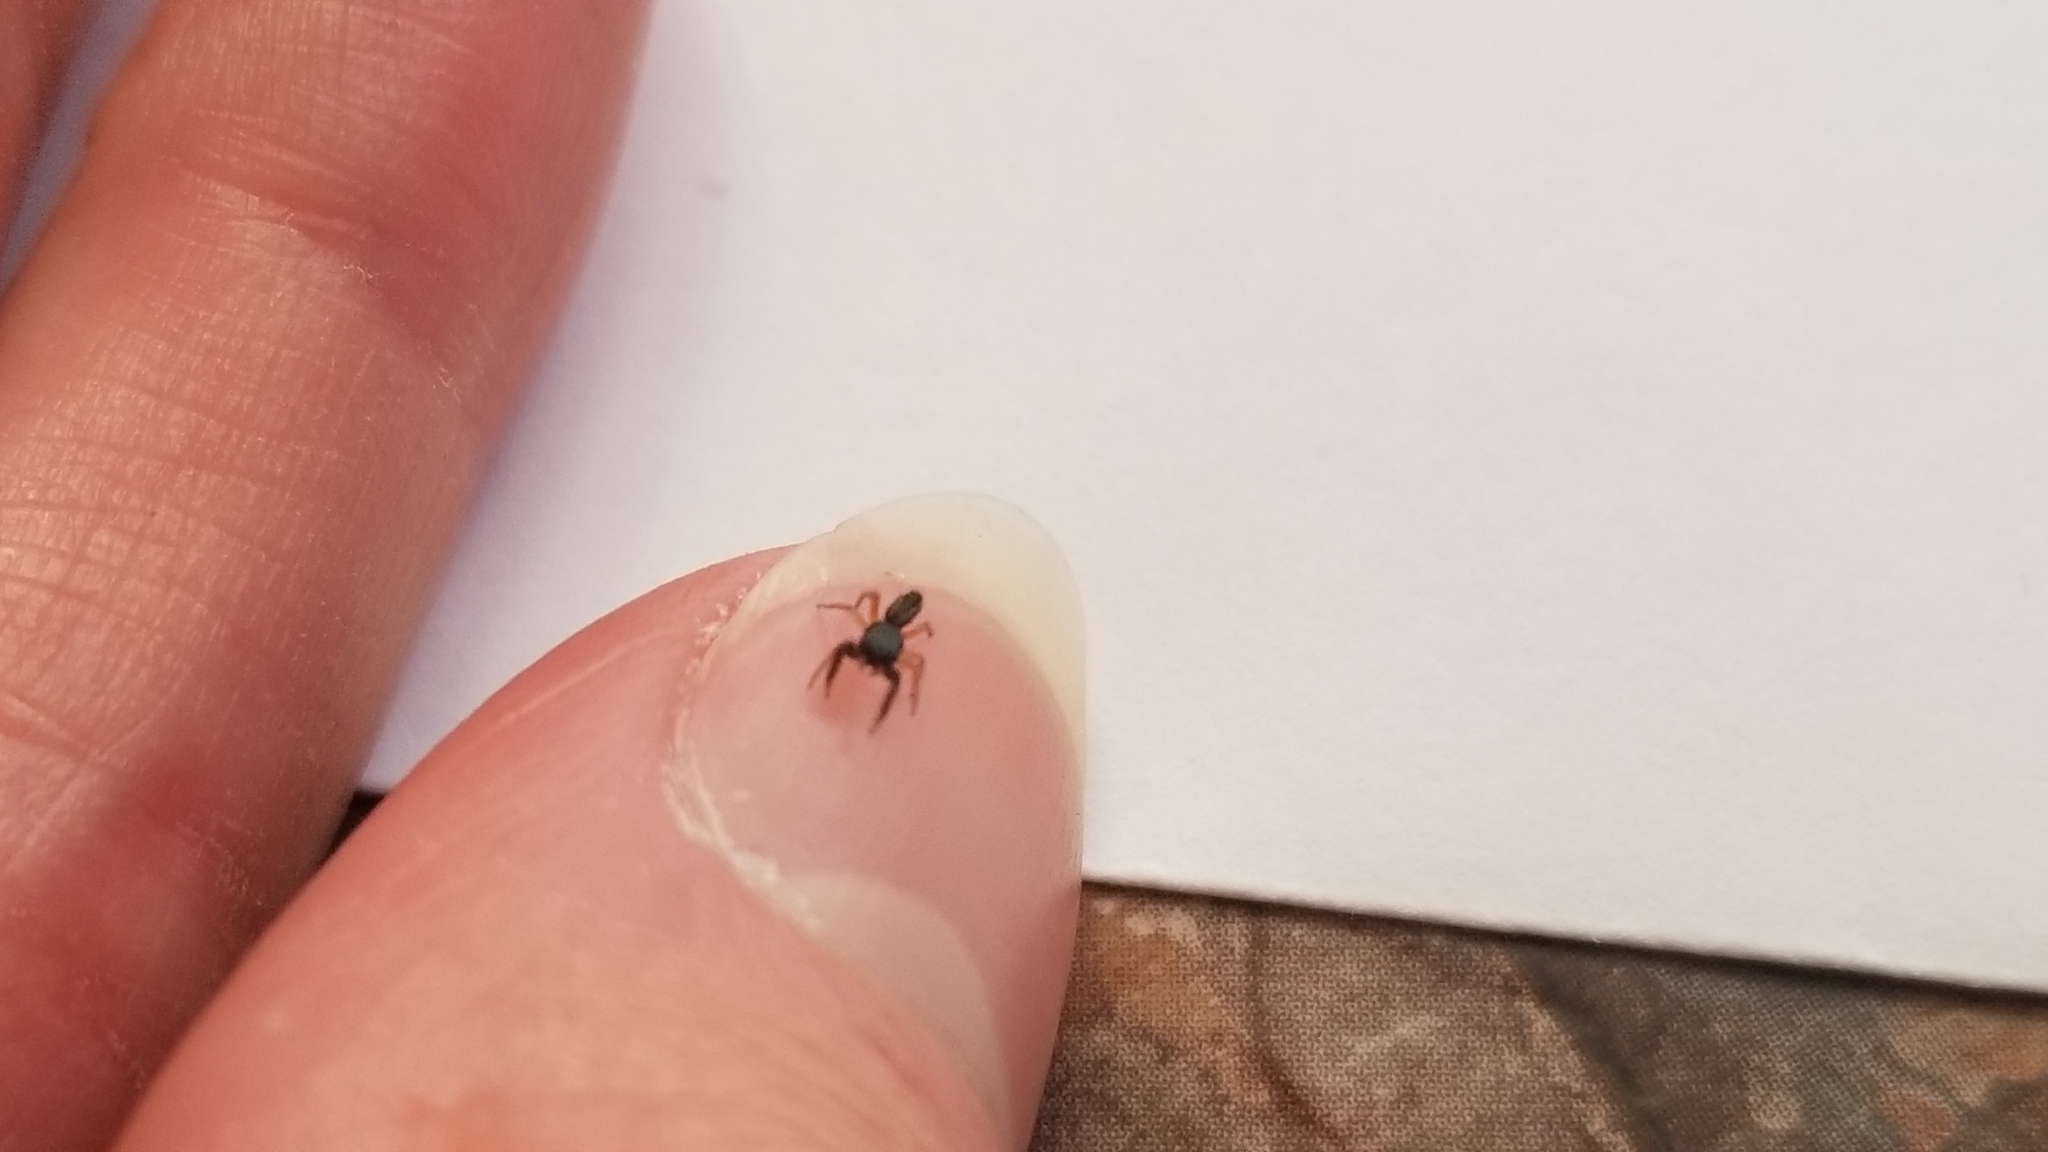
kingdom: Animalia
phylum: Arthropoda
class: Arachnida
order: Araneae
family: Salticidae
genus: Metacyrba
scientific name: Metacyrba taeniola
